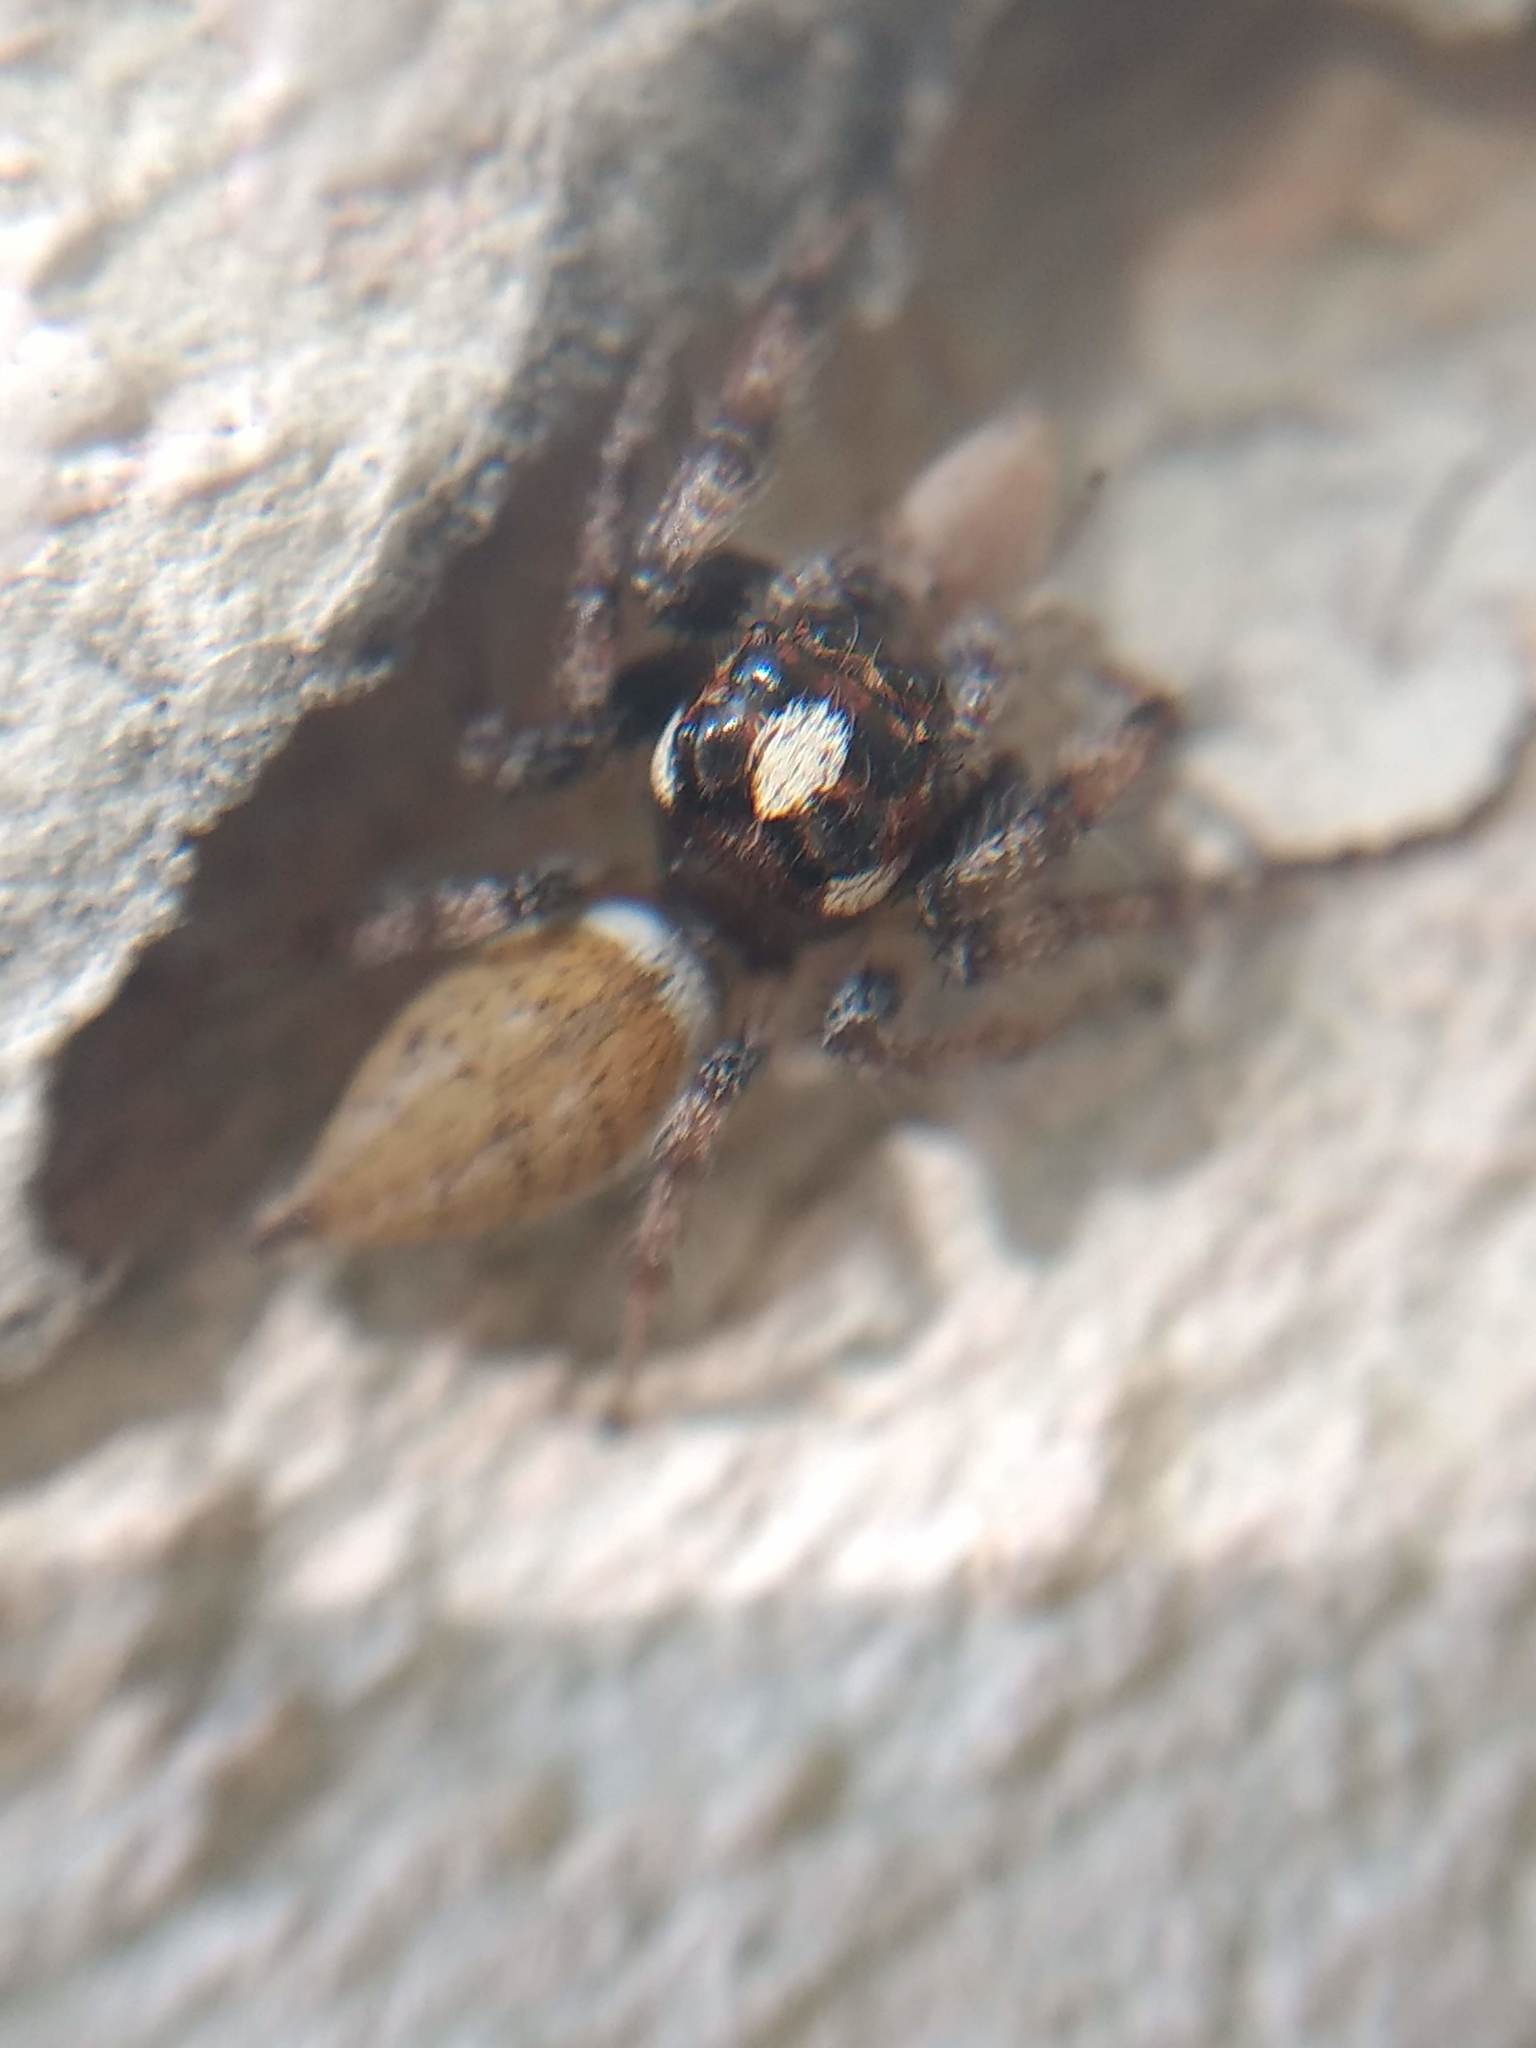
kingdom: Animalia
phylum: Arthropoda
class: Arachnida
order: Araneae
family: Salticidae
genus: Colonus
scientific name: Colonus hesperus
